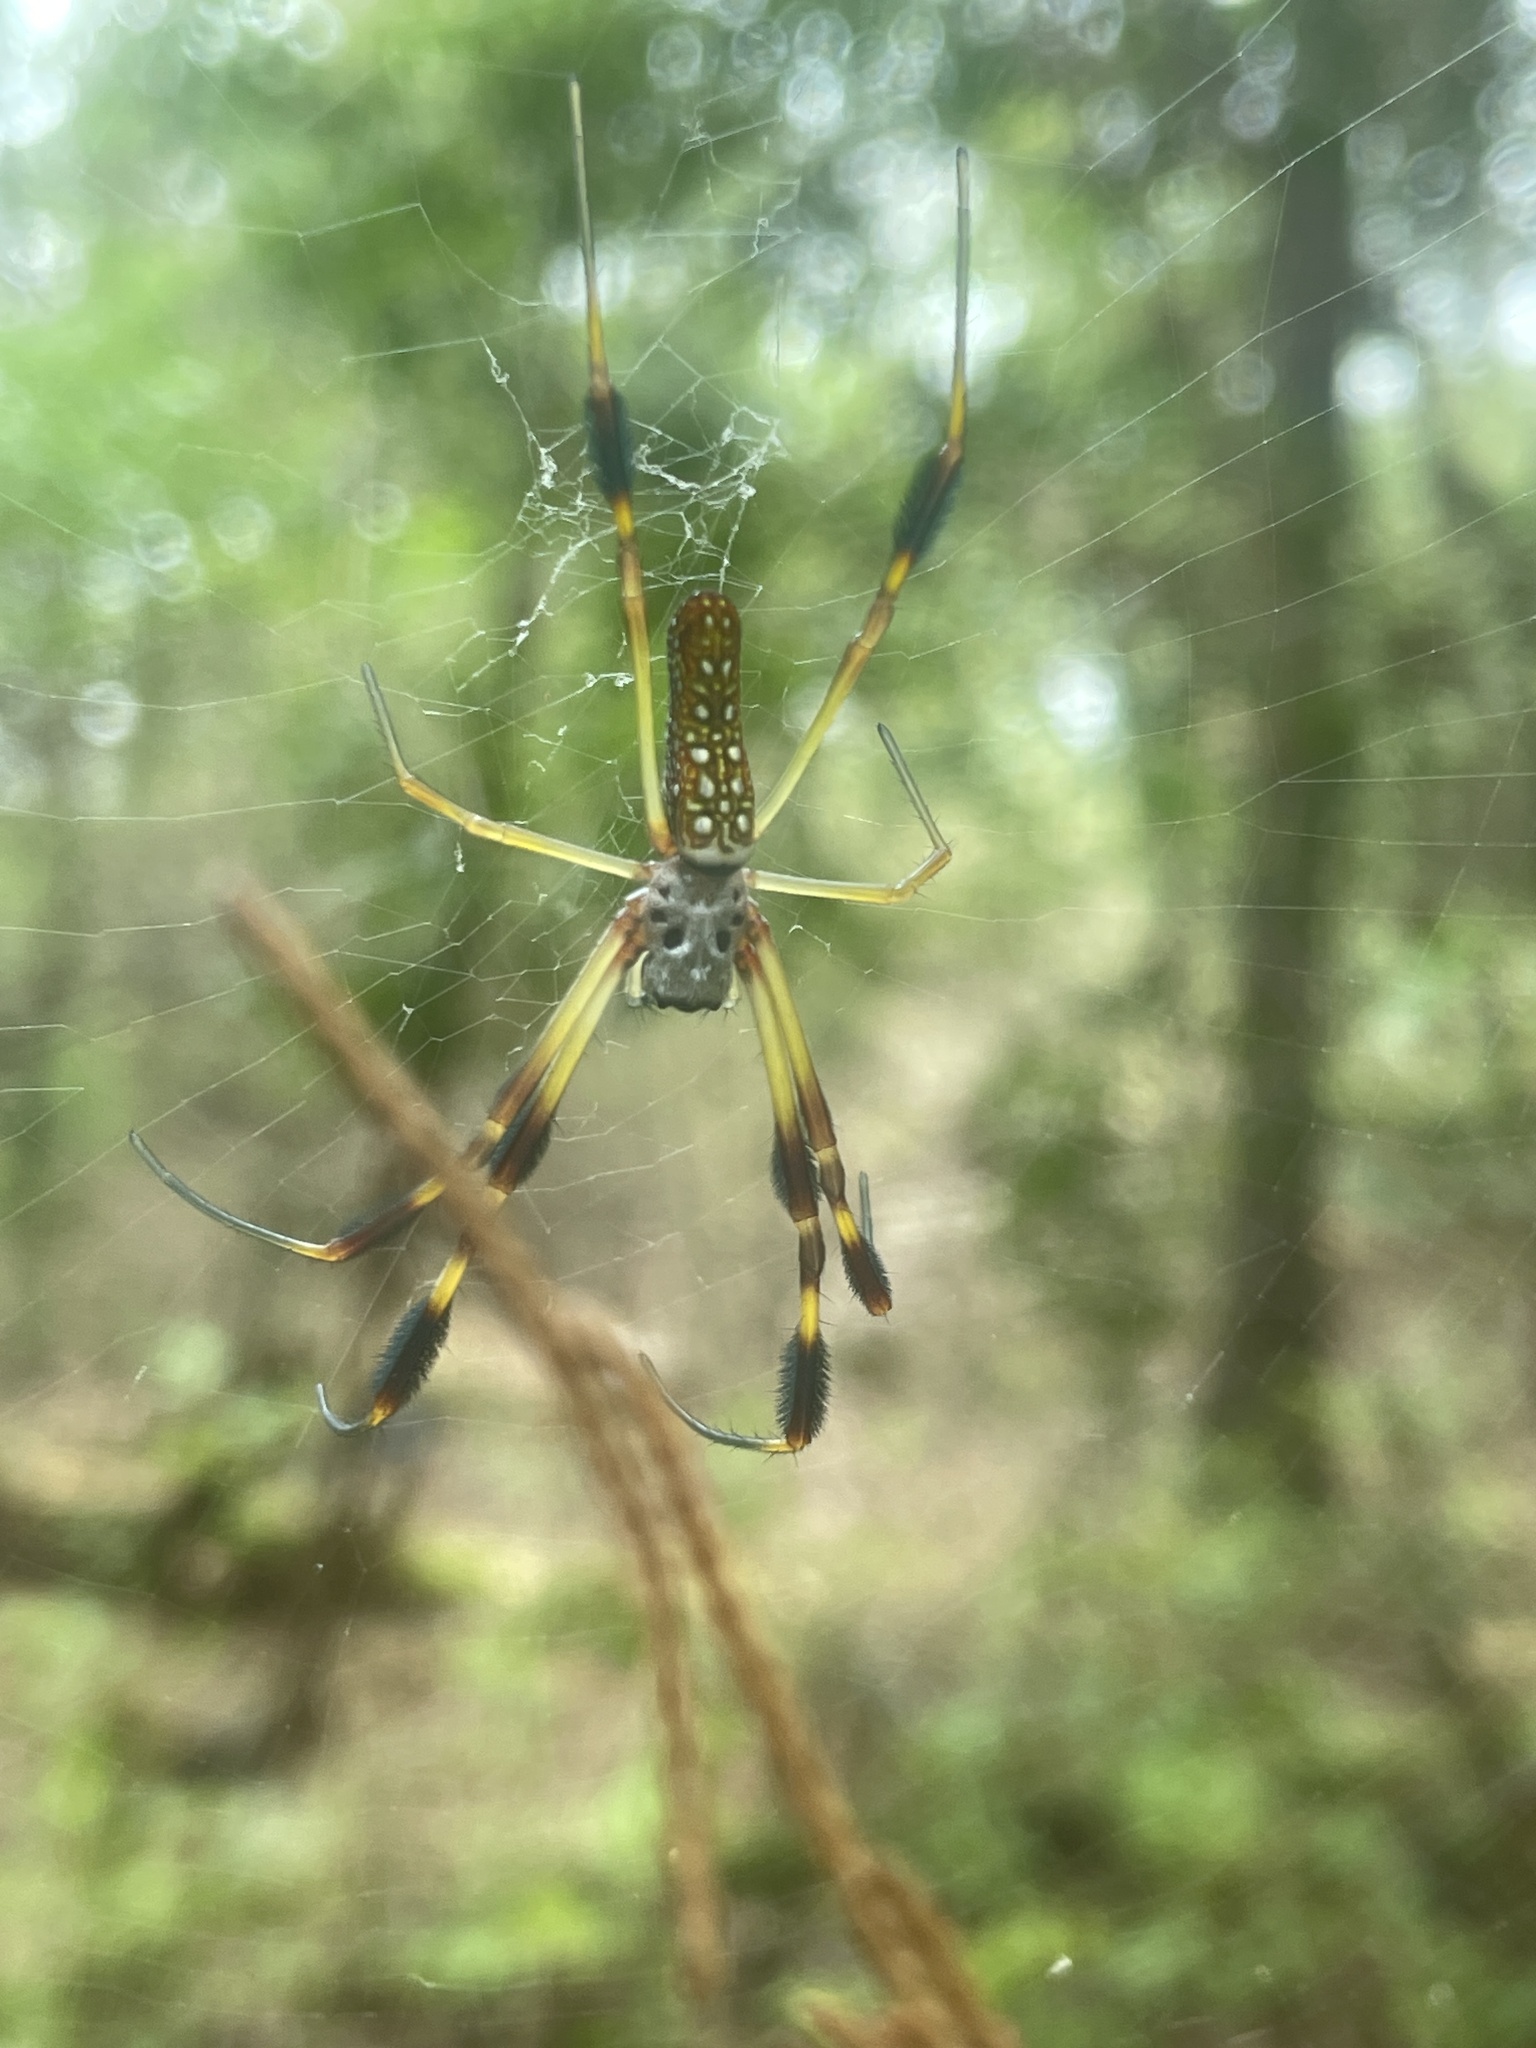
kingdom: Animalia
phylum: Arthropoda
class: Arachnida
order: Araneae
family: Araneidae
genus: Trichonephila
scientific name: Trichonephila clavipes
